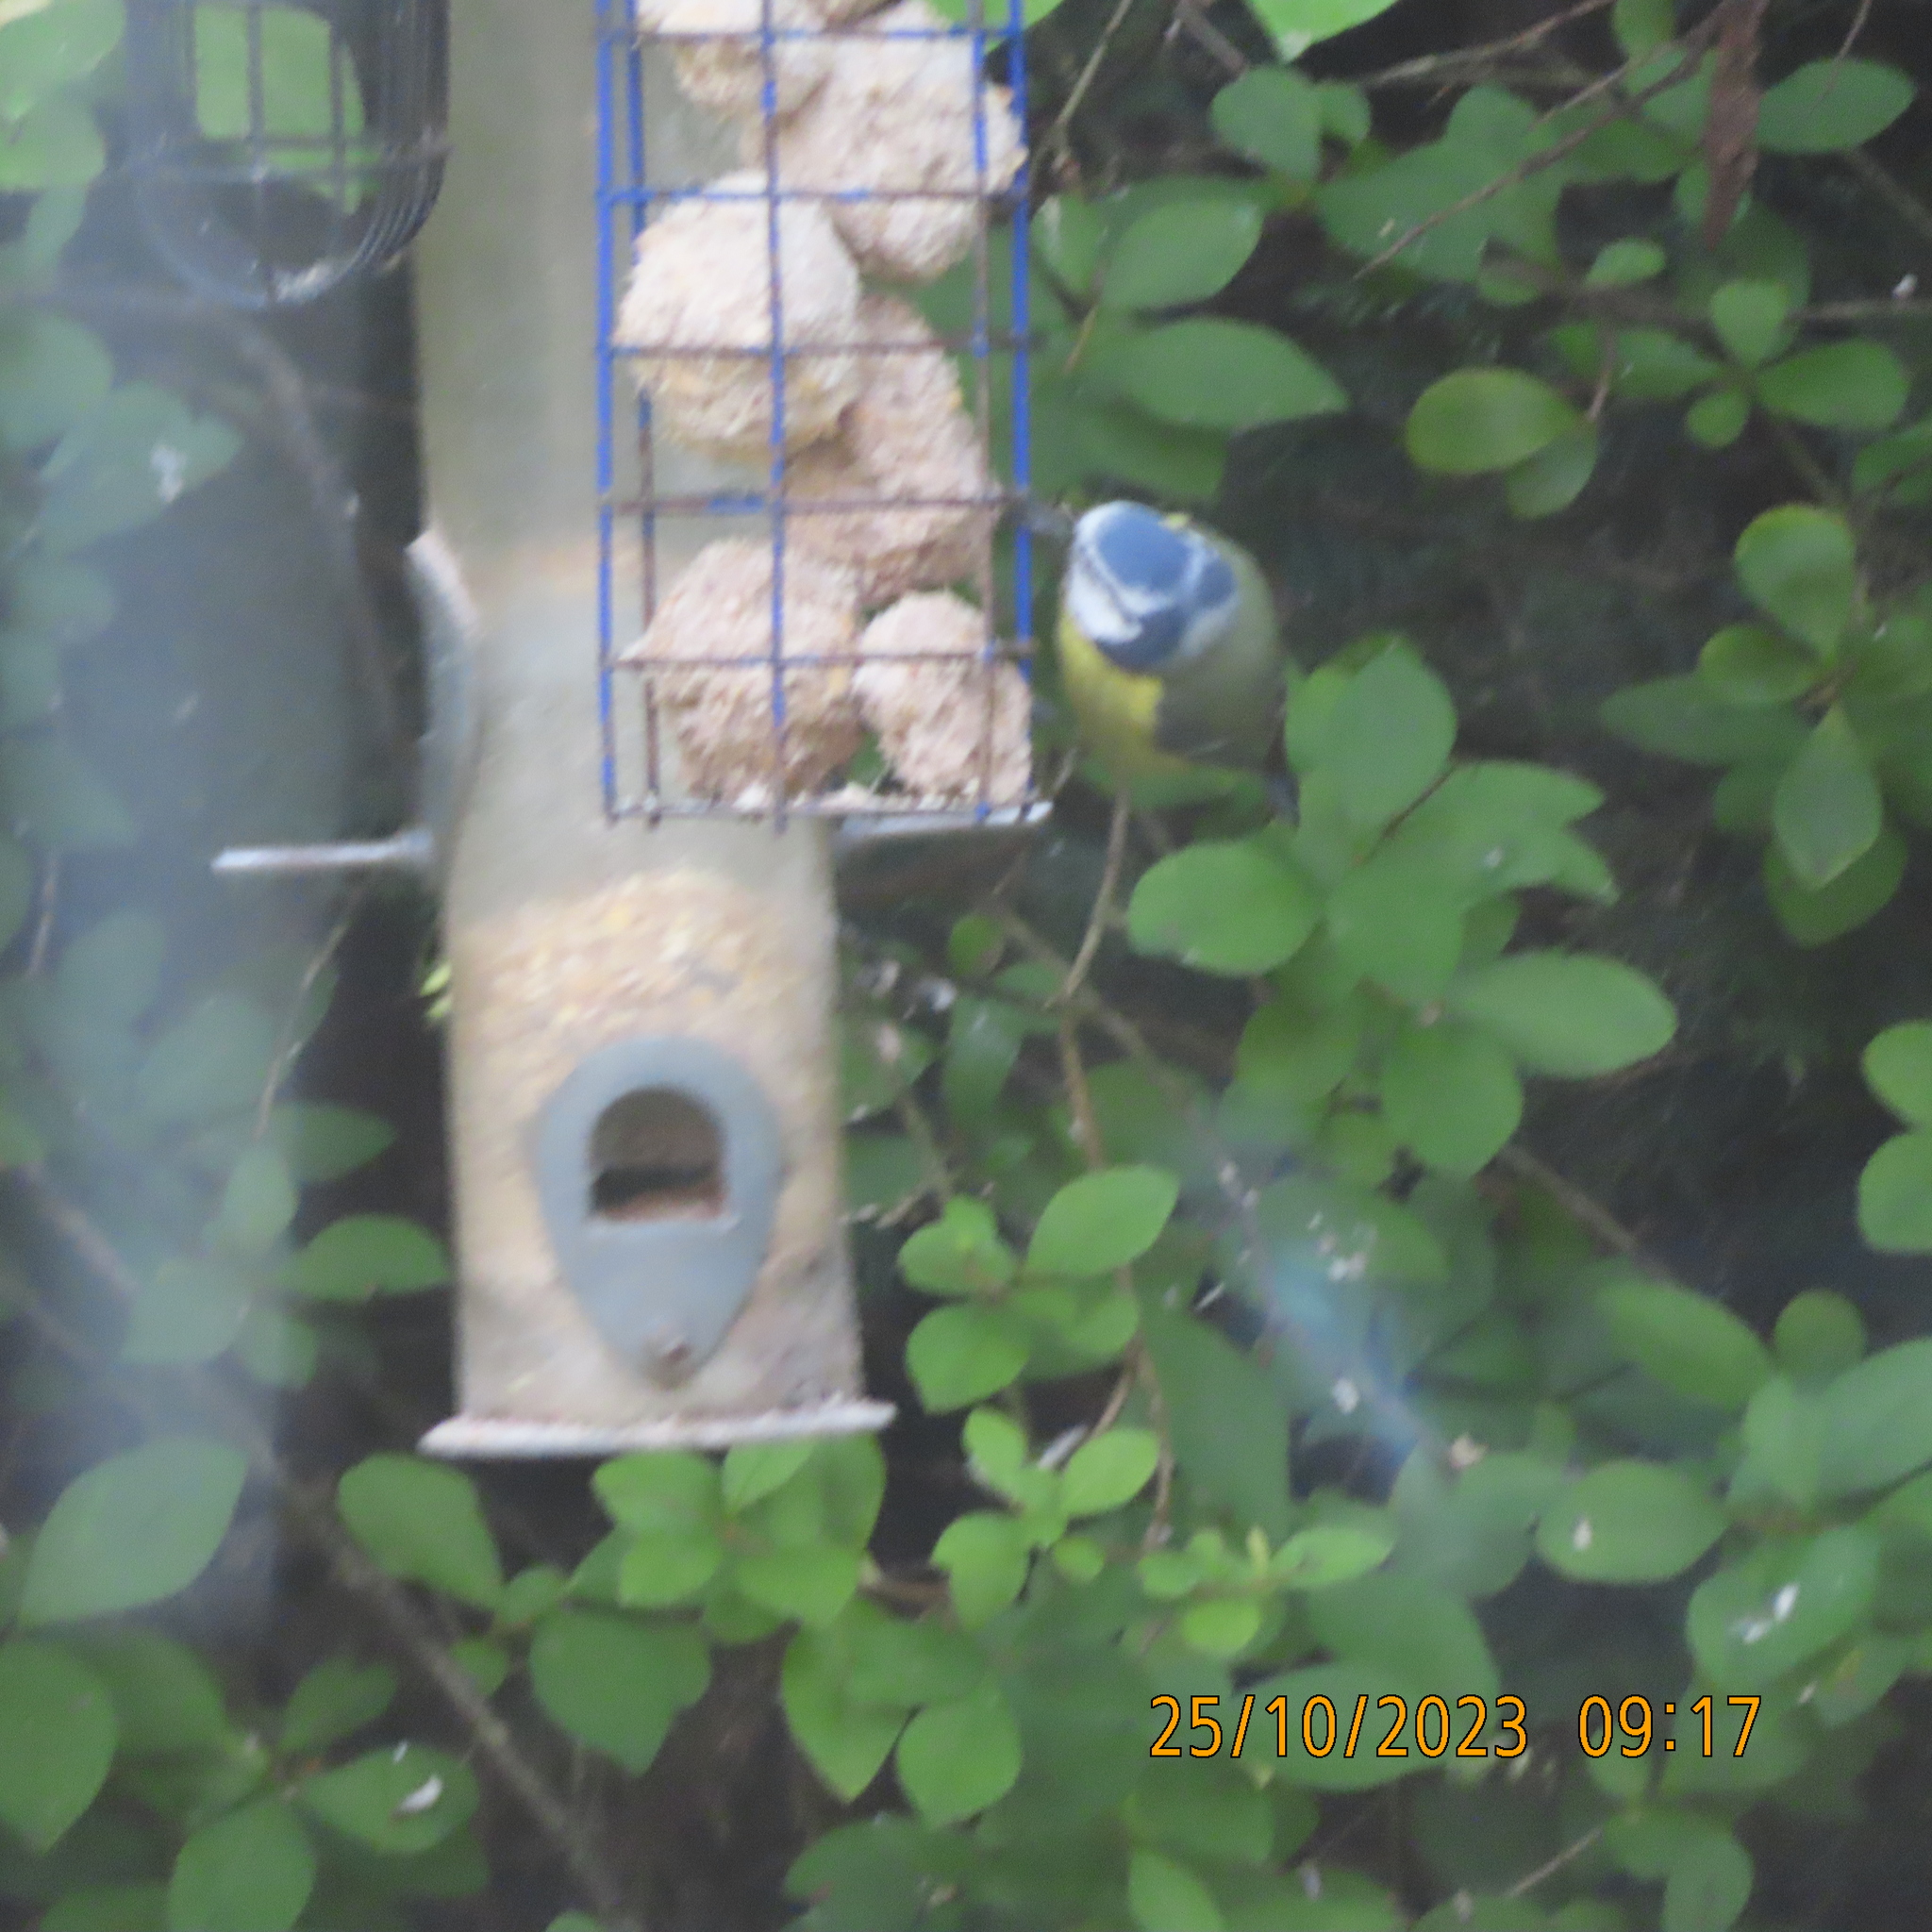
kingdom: Animalia
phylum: Chordata
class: Aves
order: Passeriformes
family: Paridae
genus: Cyanistes
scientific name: Cyanistes caeruleus
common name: Eurasian blue tit
